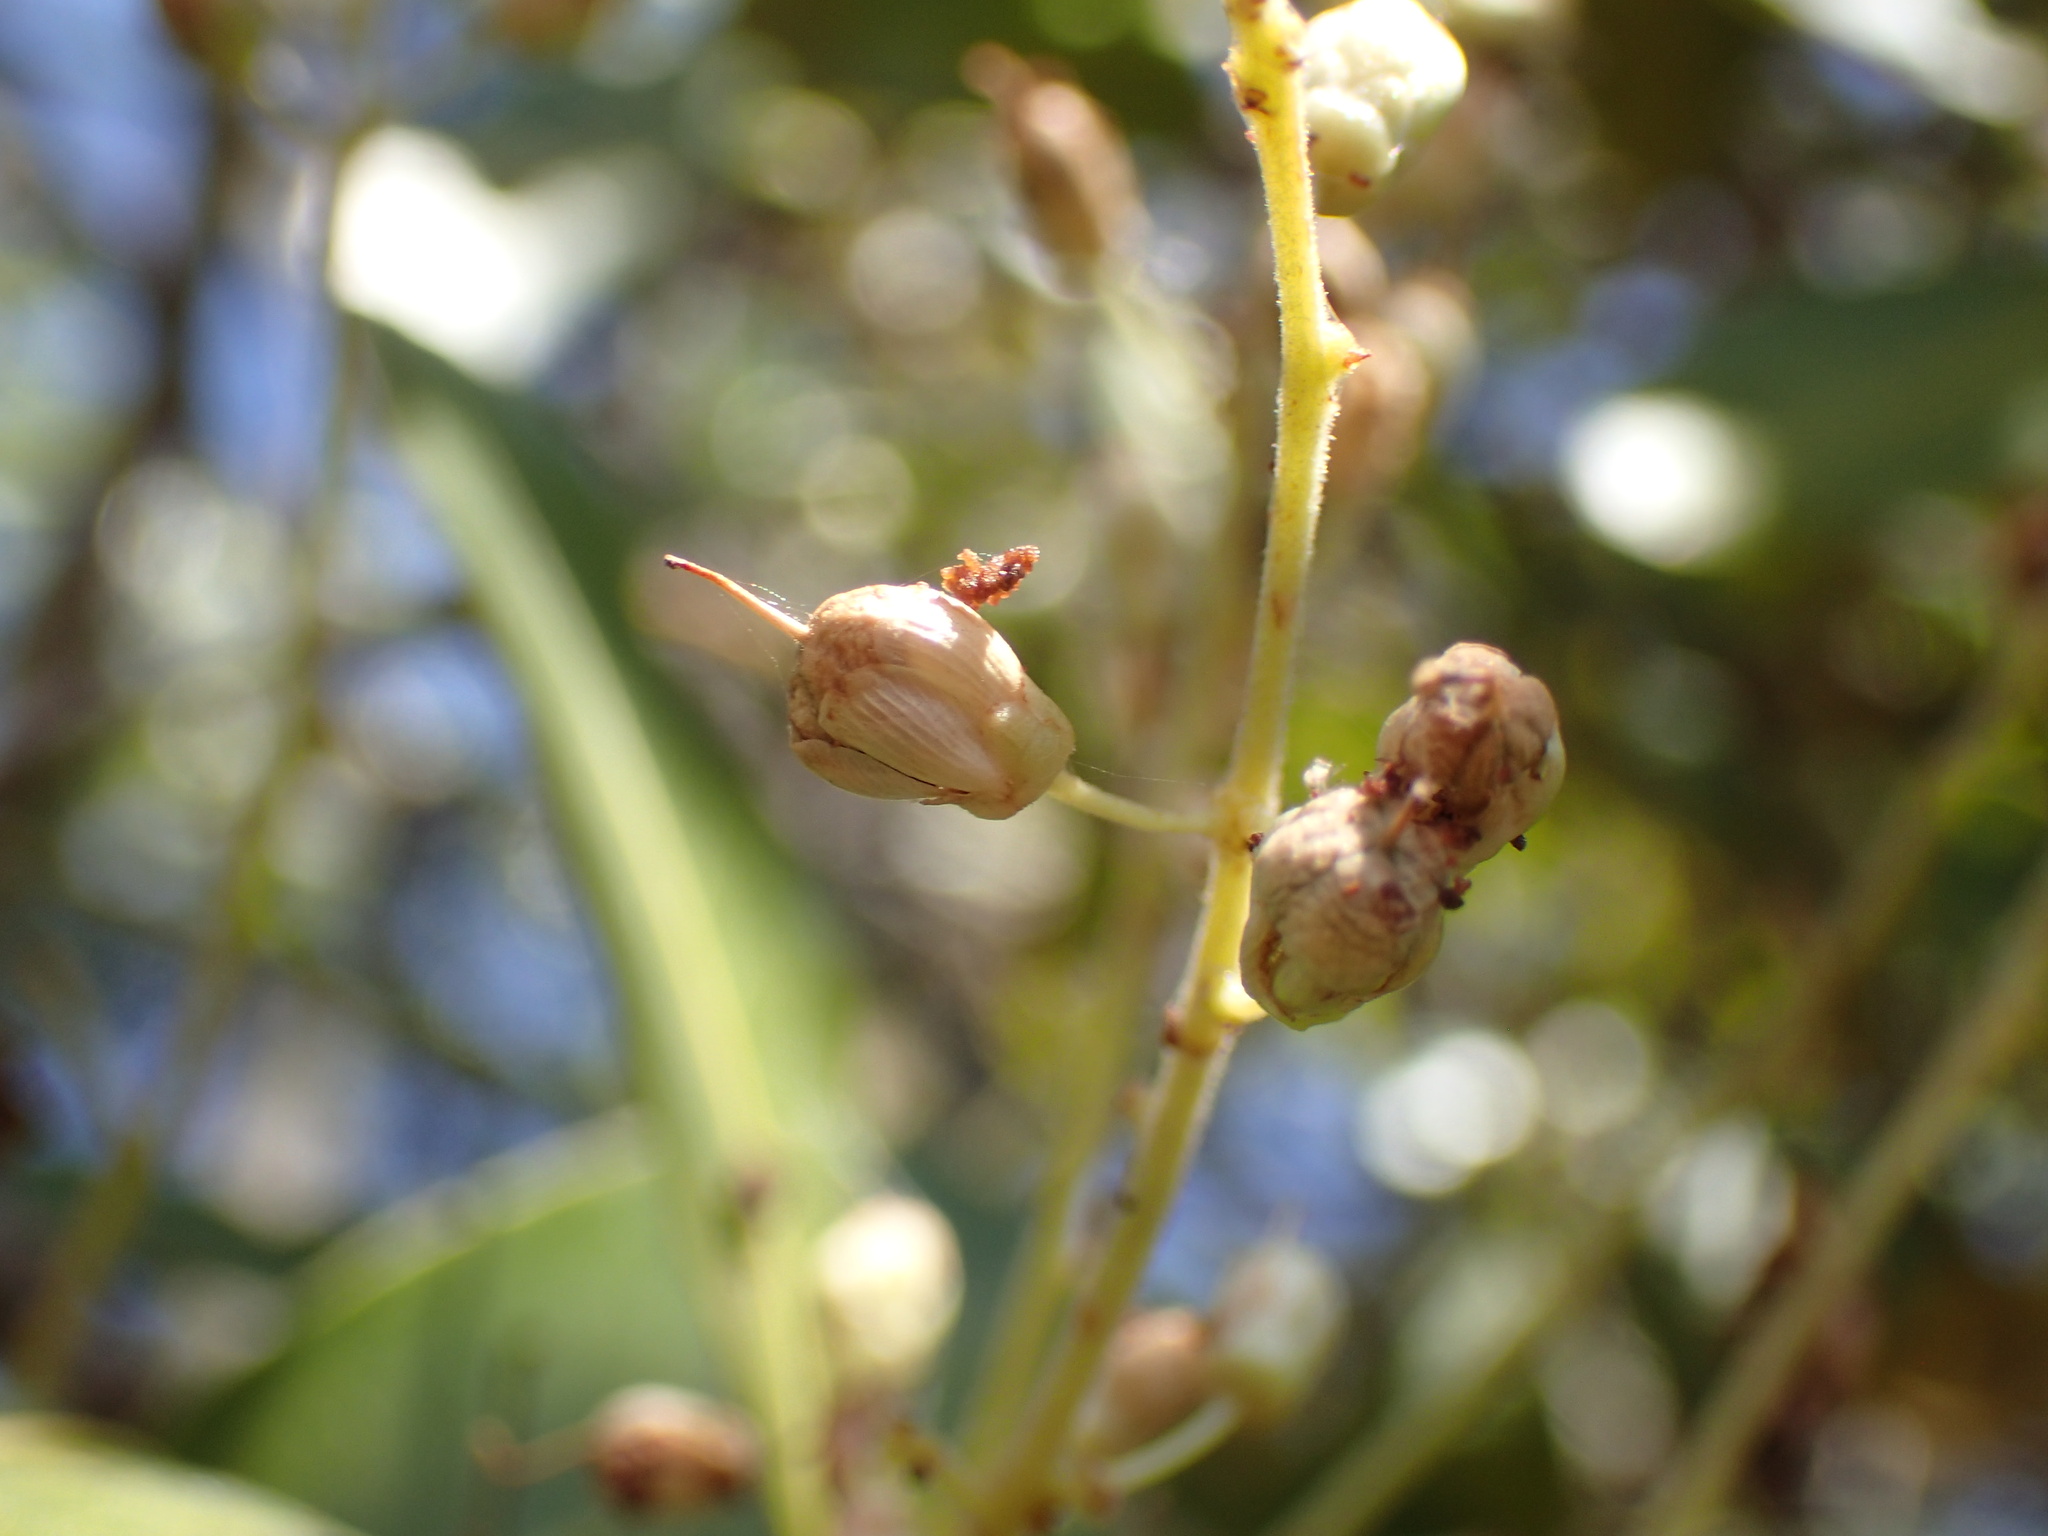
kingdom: Plantae
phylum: Tracheophyta
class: Magnoliopsida
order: Malpighiales
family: Ixonanthaceae
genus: Phyllocosmus
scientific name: Phyllocosmus lemaireanus
